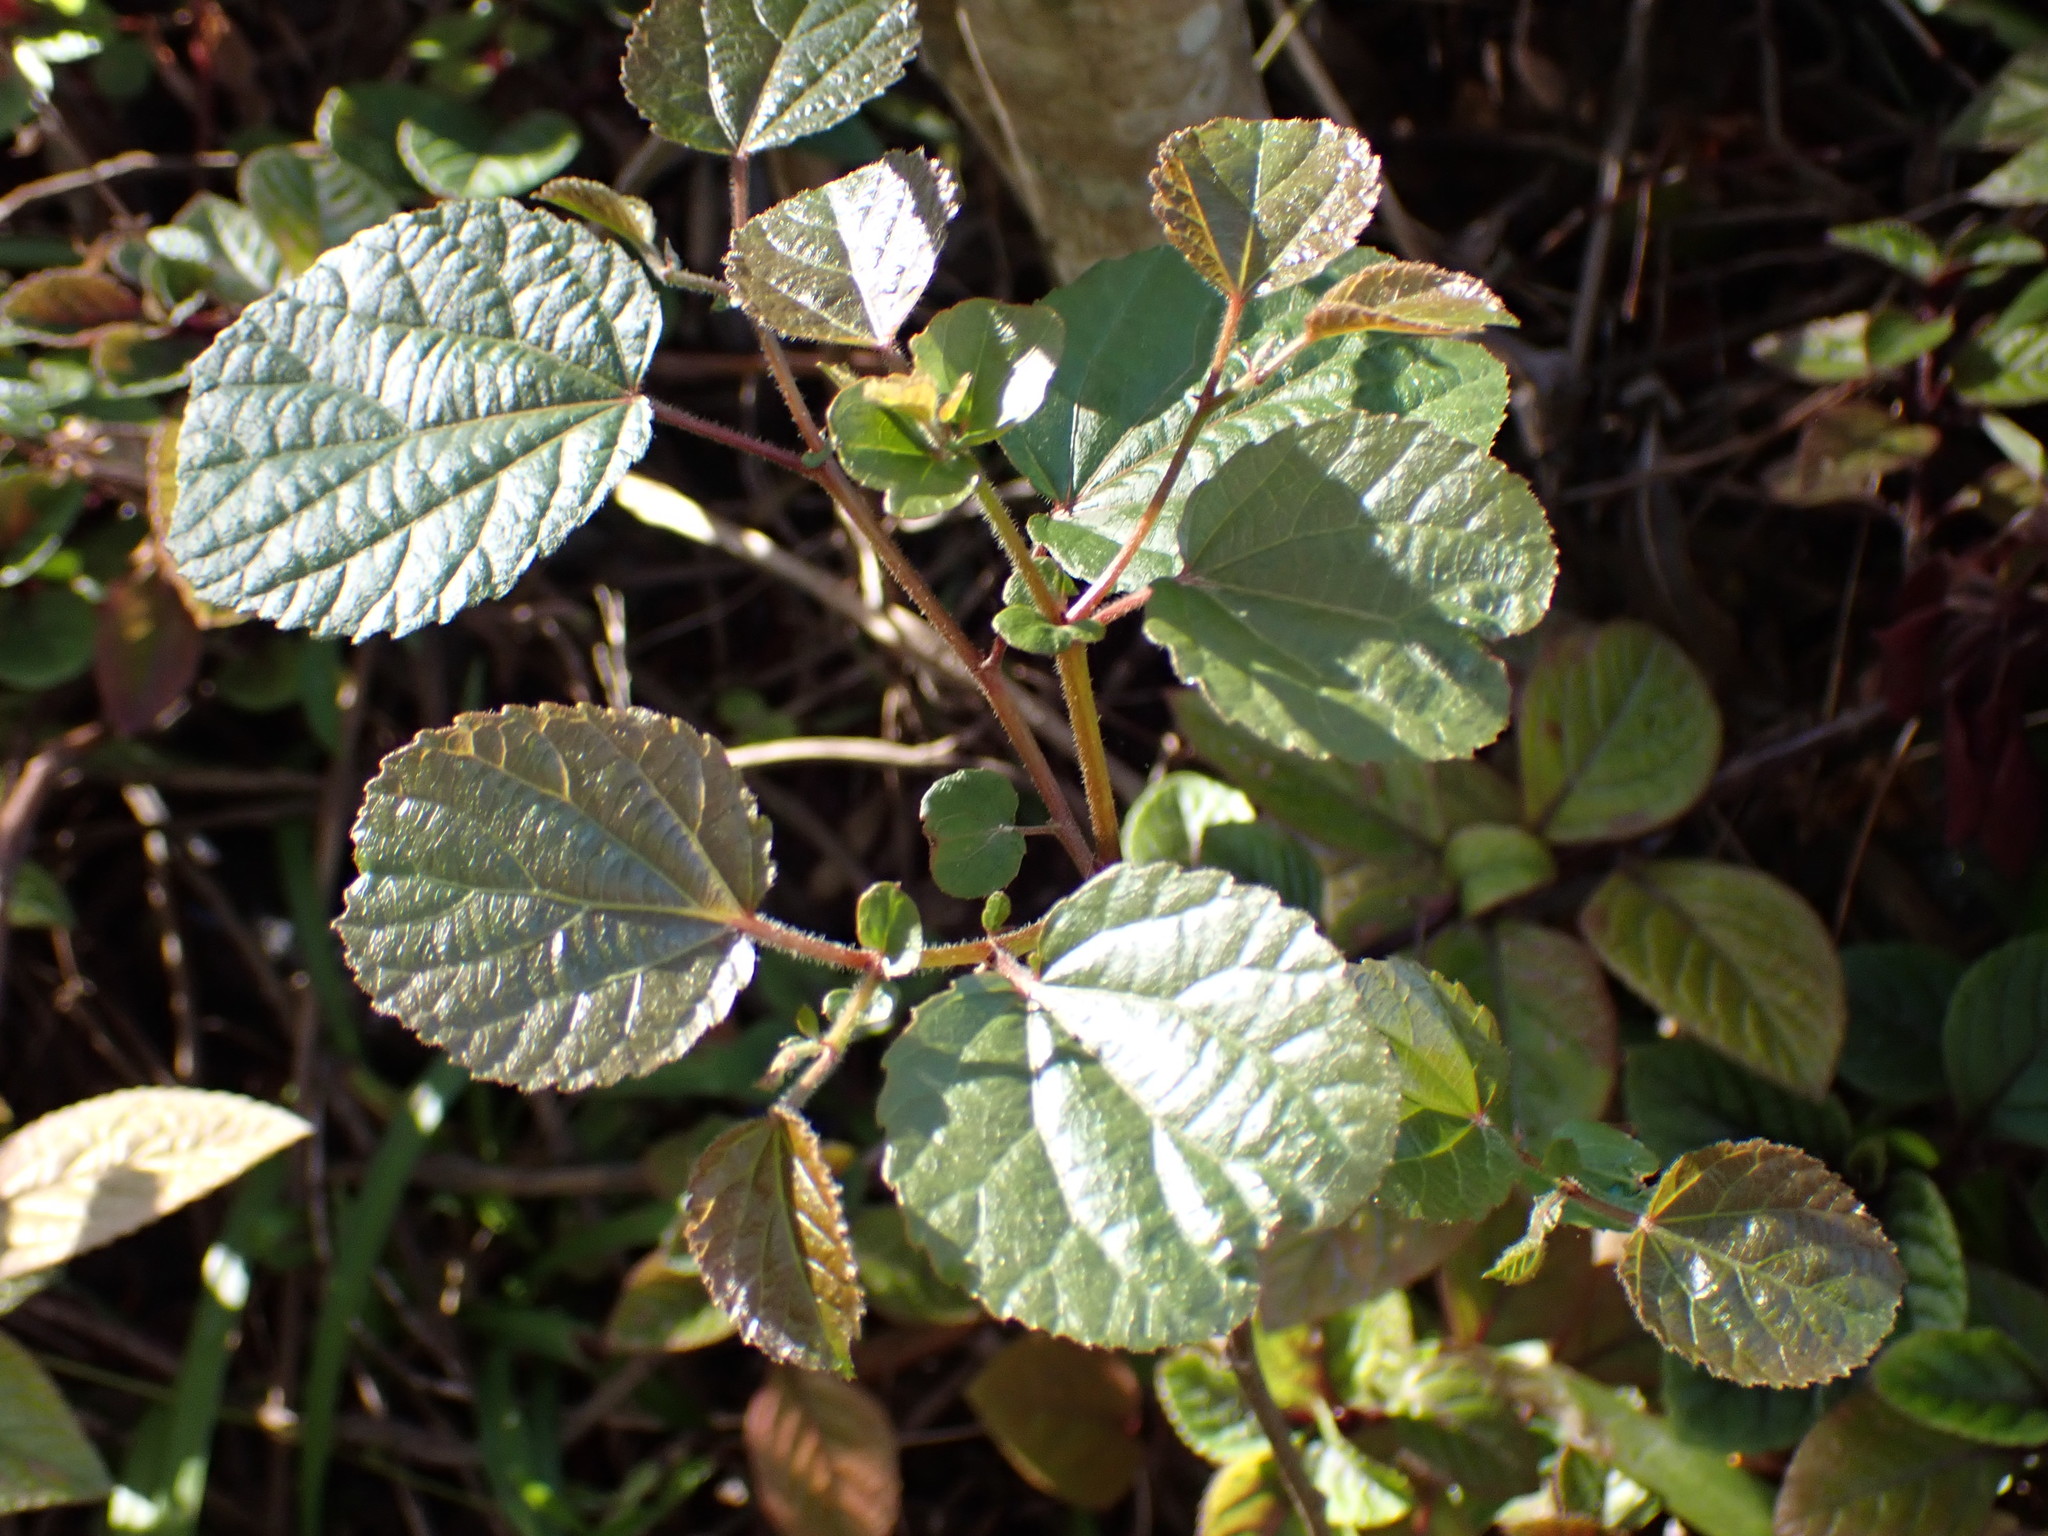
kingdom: Plantae
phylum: Tracheophyta
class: Magnoliopsida
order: Malpighiales
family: Salicaceae
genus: Trimeria
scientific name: Trimeria grandifolia
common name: Wild mulberry
